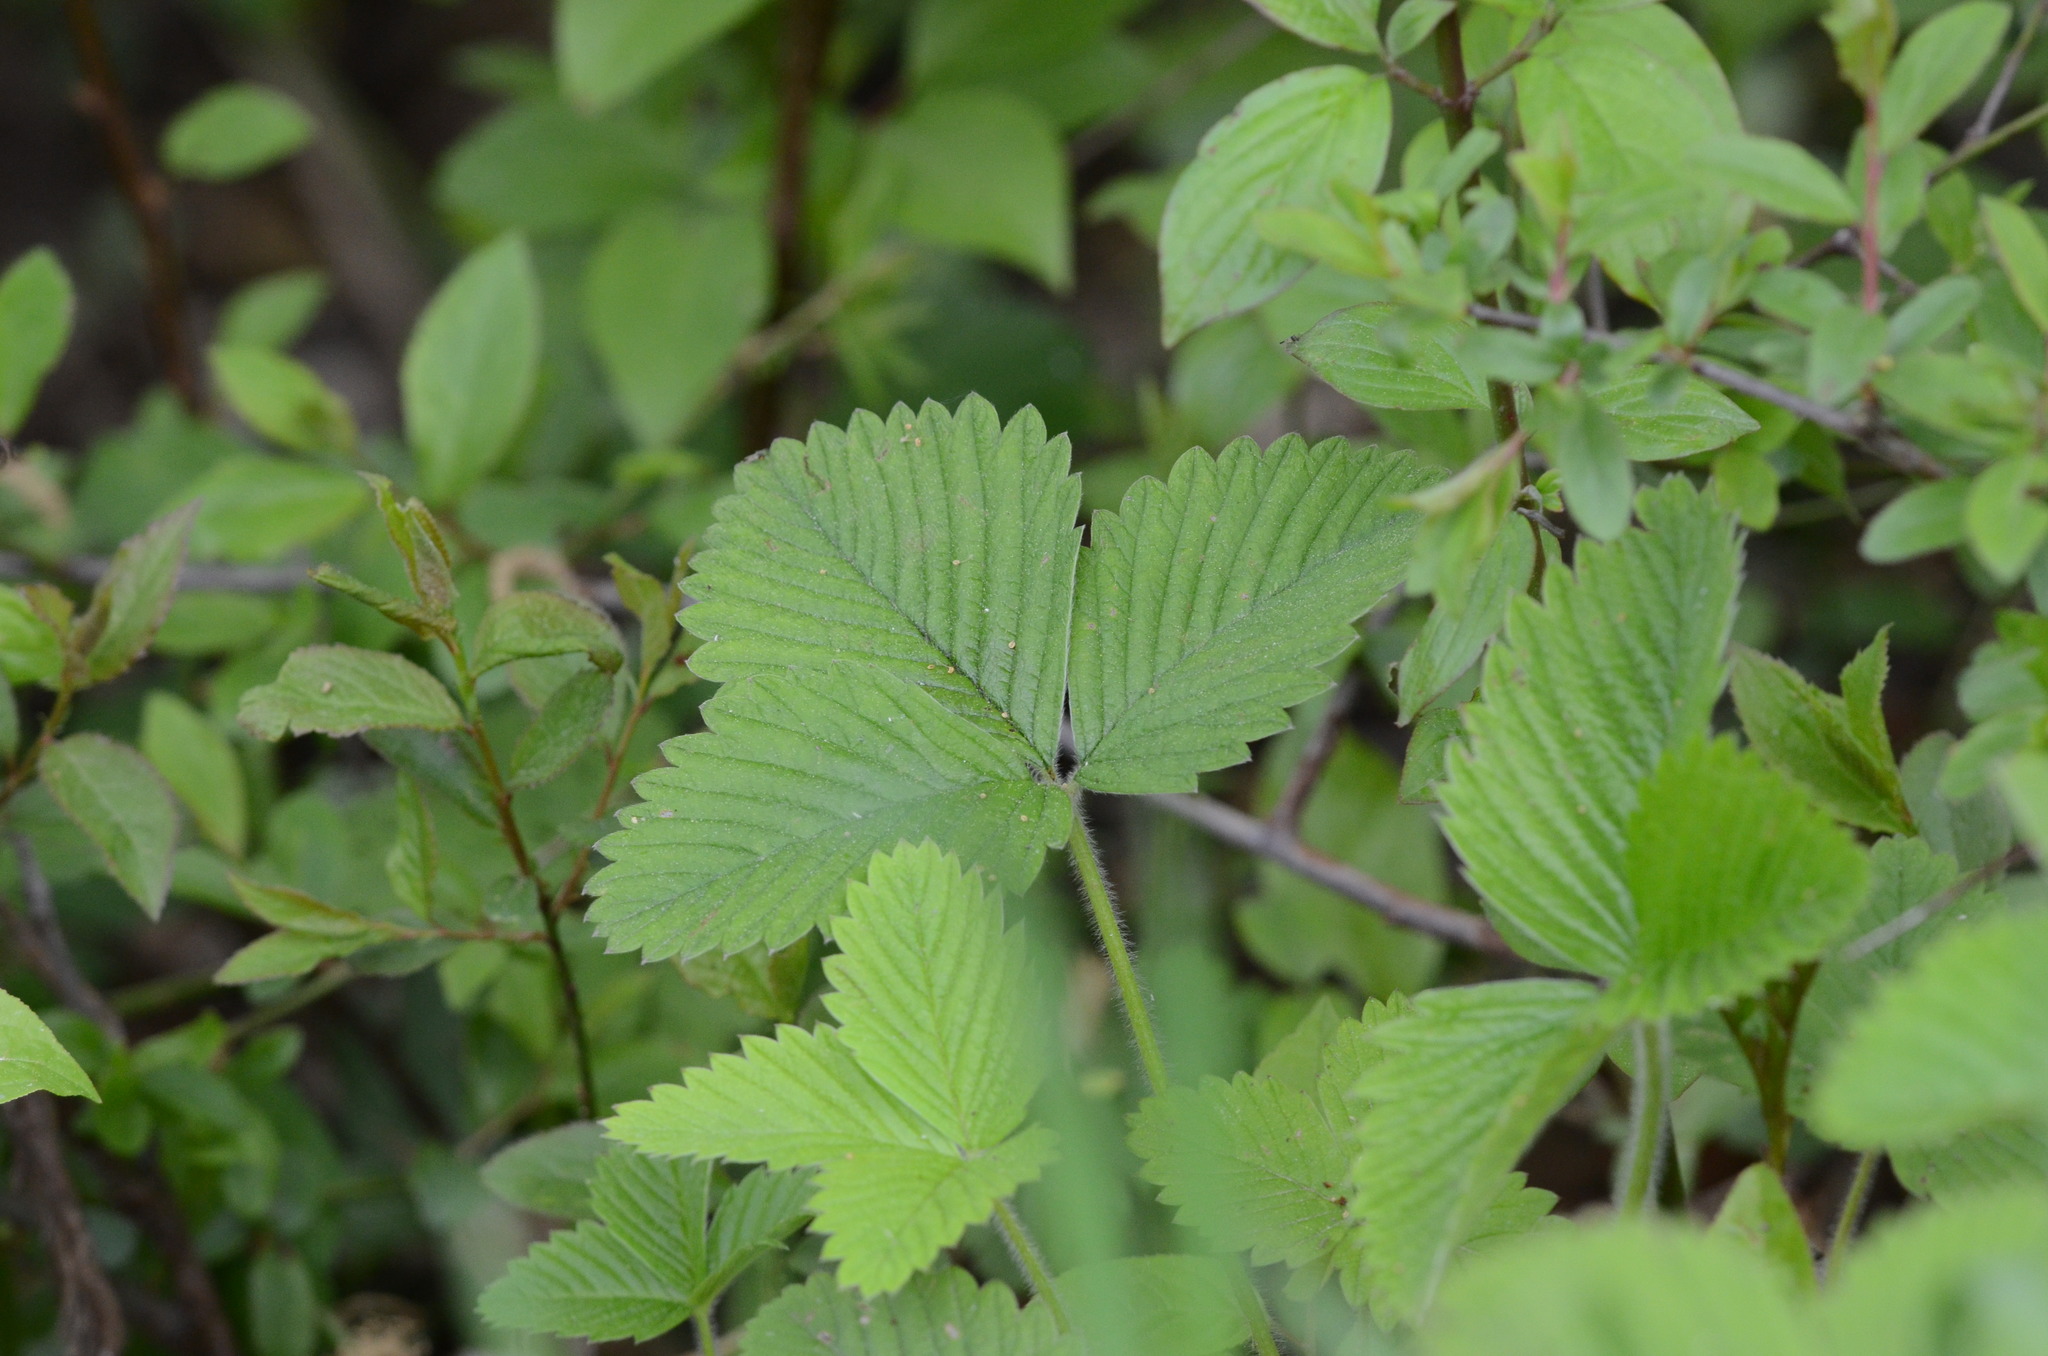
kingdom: Plantae
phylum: Tracheophyta
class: Magnoliopsida
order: Rosales
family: Rosaceae
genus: Fragaria
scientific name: Fragaria vesca
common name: Wild strawberry
